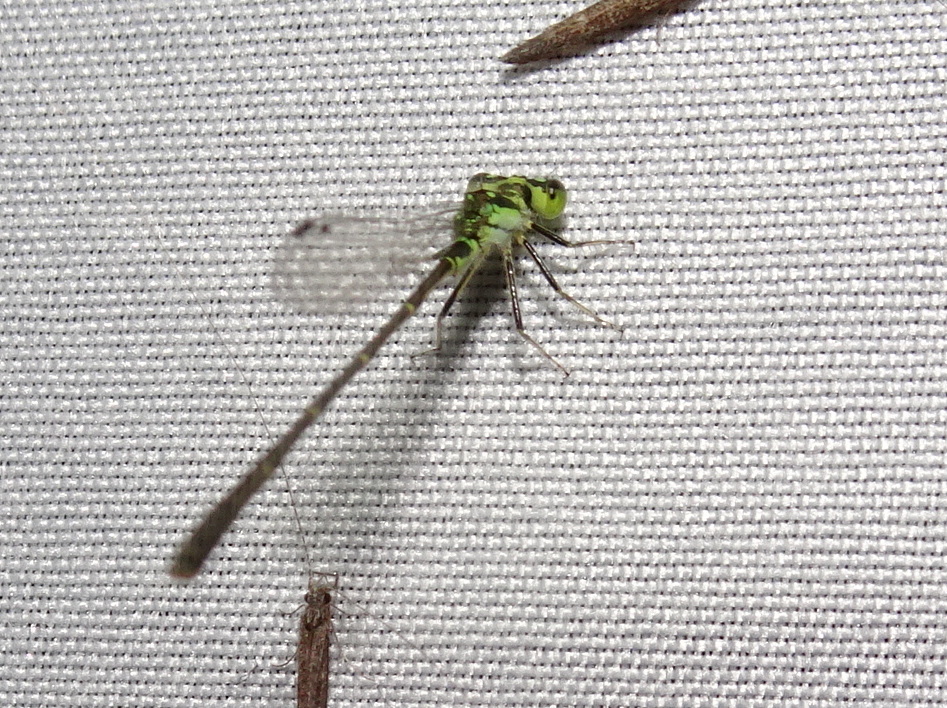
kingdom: Animalia
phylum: Arthropoda
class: Insecta
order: Odonata
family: Coenagrionidae
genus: Ischnura
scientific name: Ischnura posita
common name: Fragile forktail
